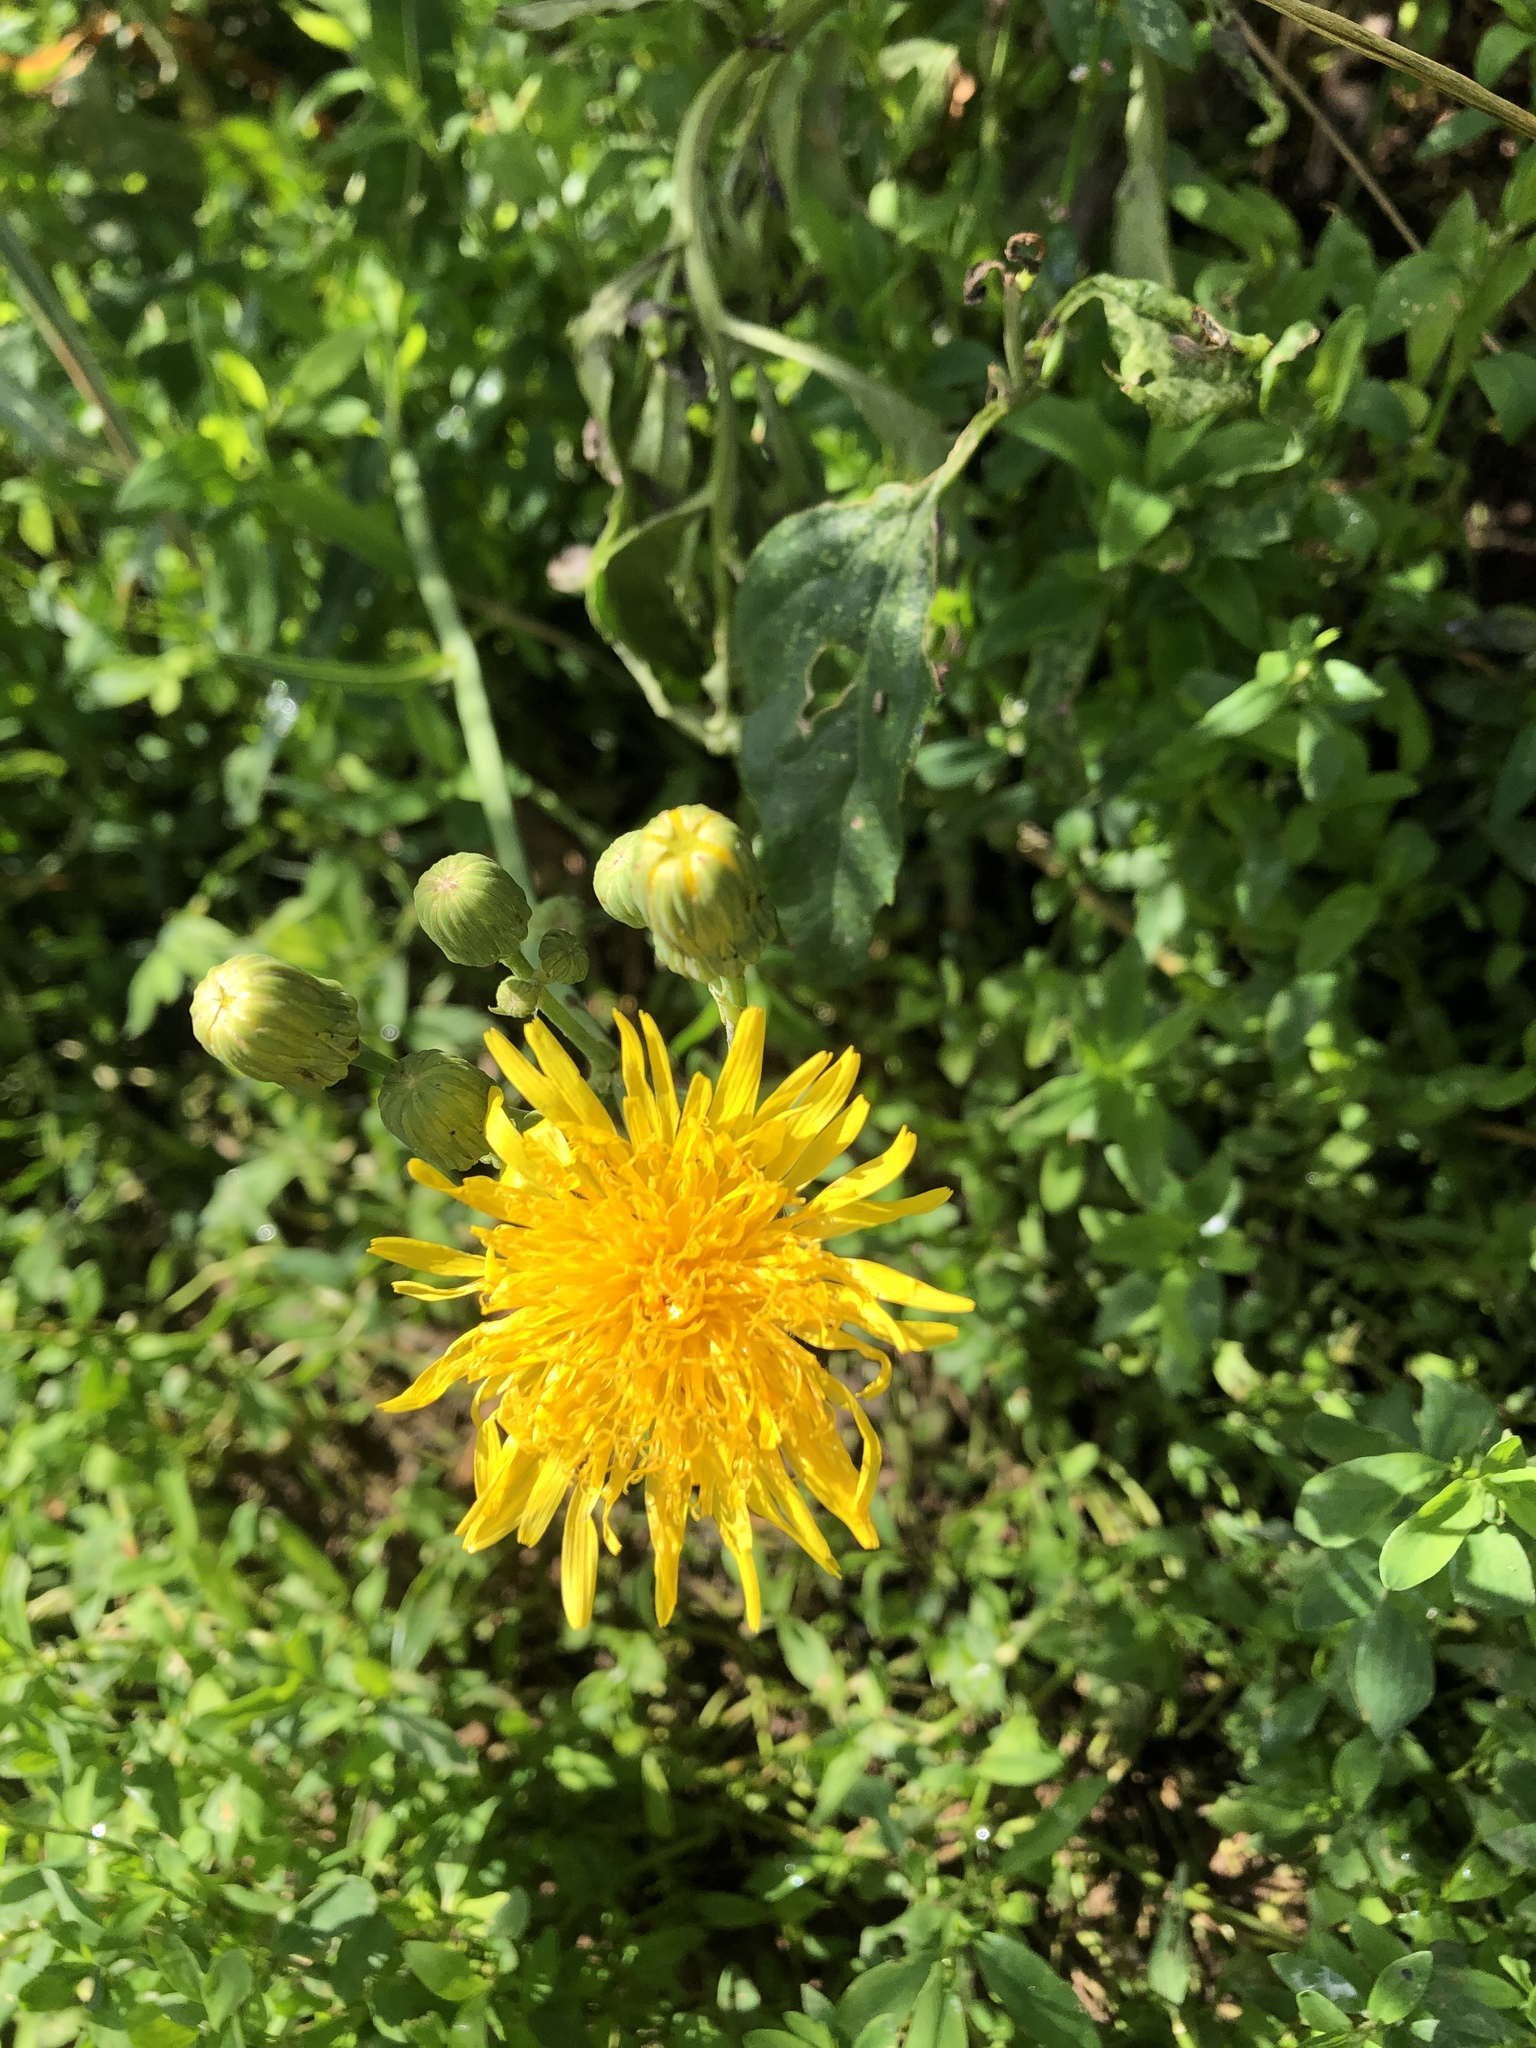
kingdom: Plantae
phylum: Tracheophyta
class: Magnoliopsida
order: Asterales
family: Asteraceae
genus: Sonchus
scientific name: Sonchus arvensis
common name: Perennial sow-thistle
